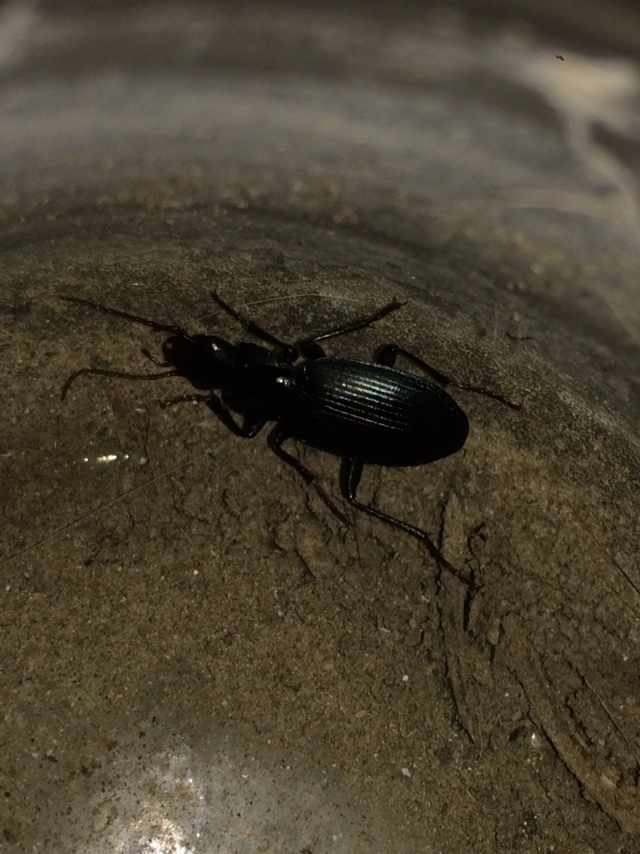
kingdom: Animalia
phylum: Arthropoda
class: Insecta
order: Coleoptera
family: Carabidae
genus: Laemostenus
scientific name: Laemostenus complanatus
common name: Cosmopolitan ground beetle
